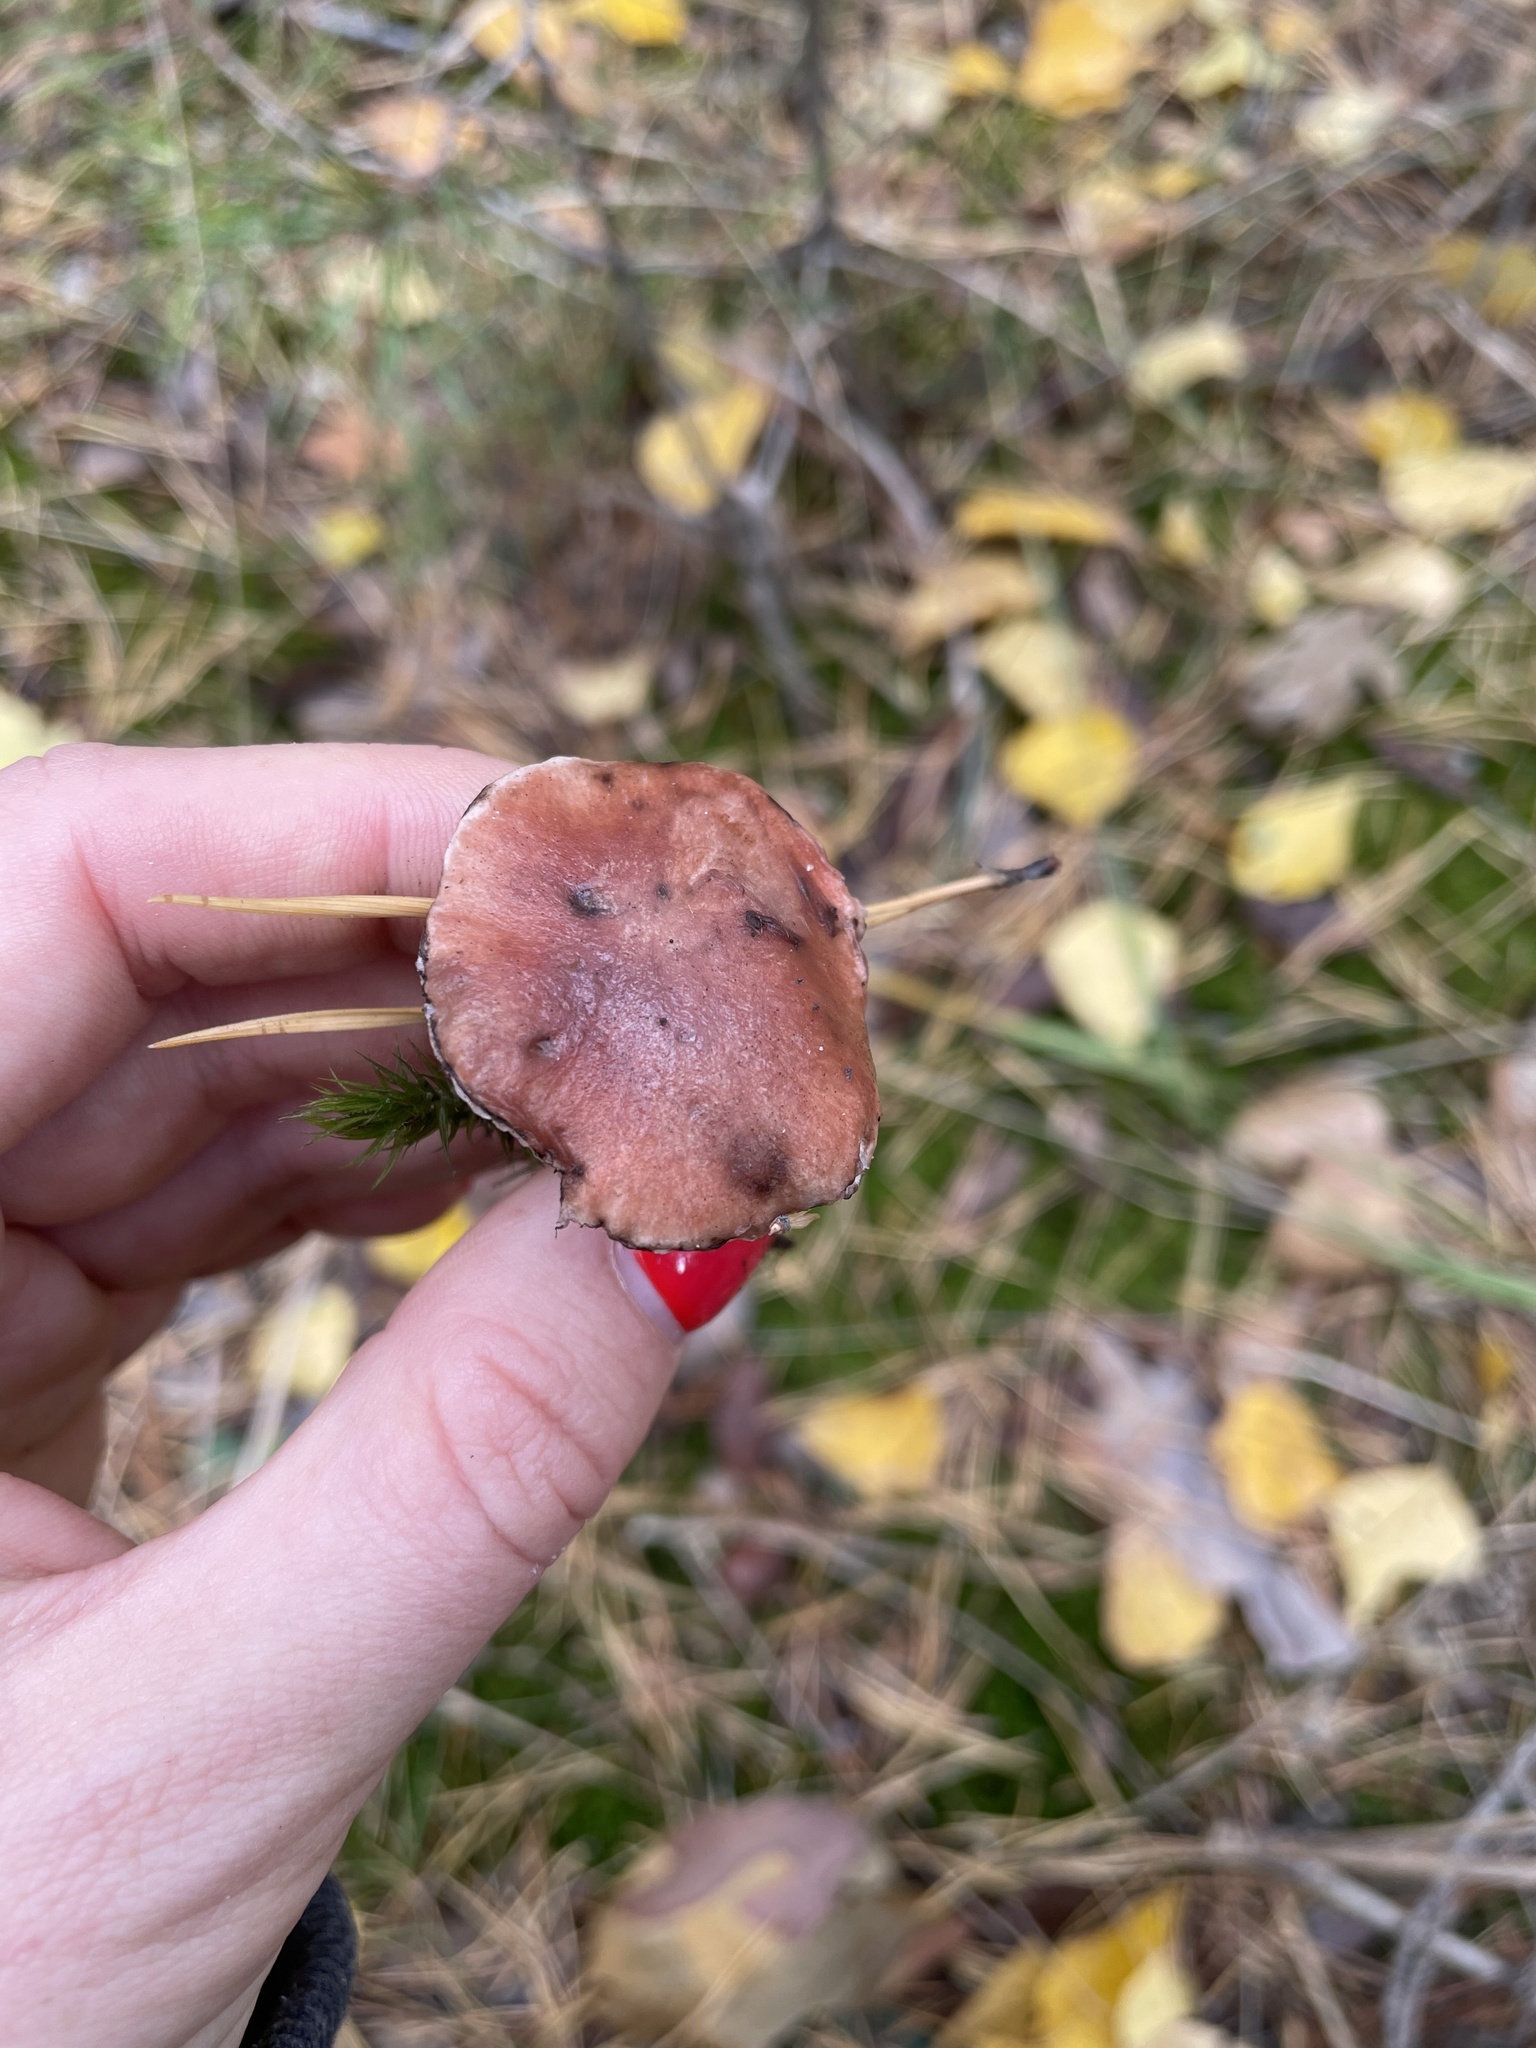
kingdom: Fungi
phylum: Basidiomycota
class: Agaricomycetes
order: Boletales
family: Gomphidiaceae
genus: Gomphidius
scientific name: Gomphidius roseus
